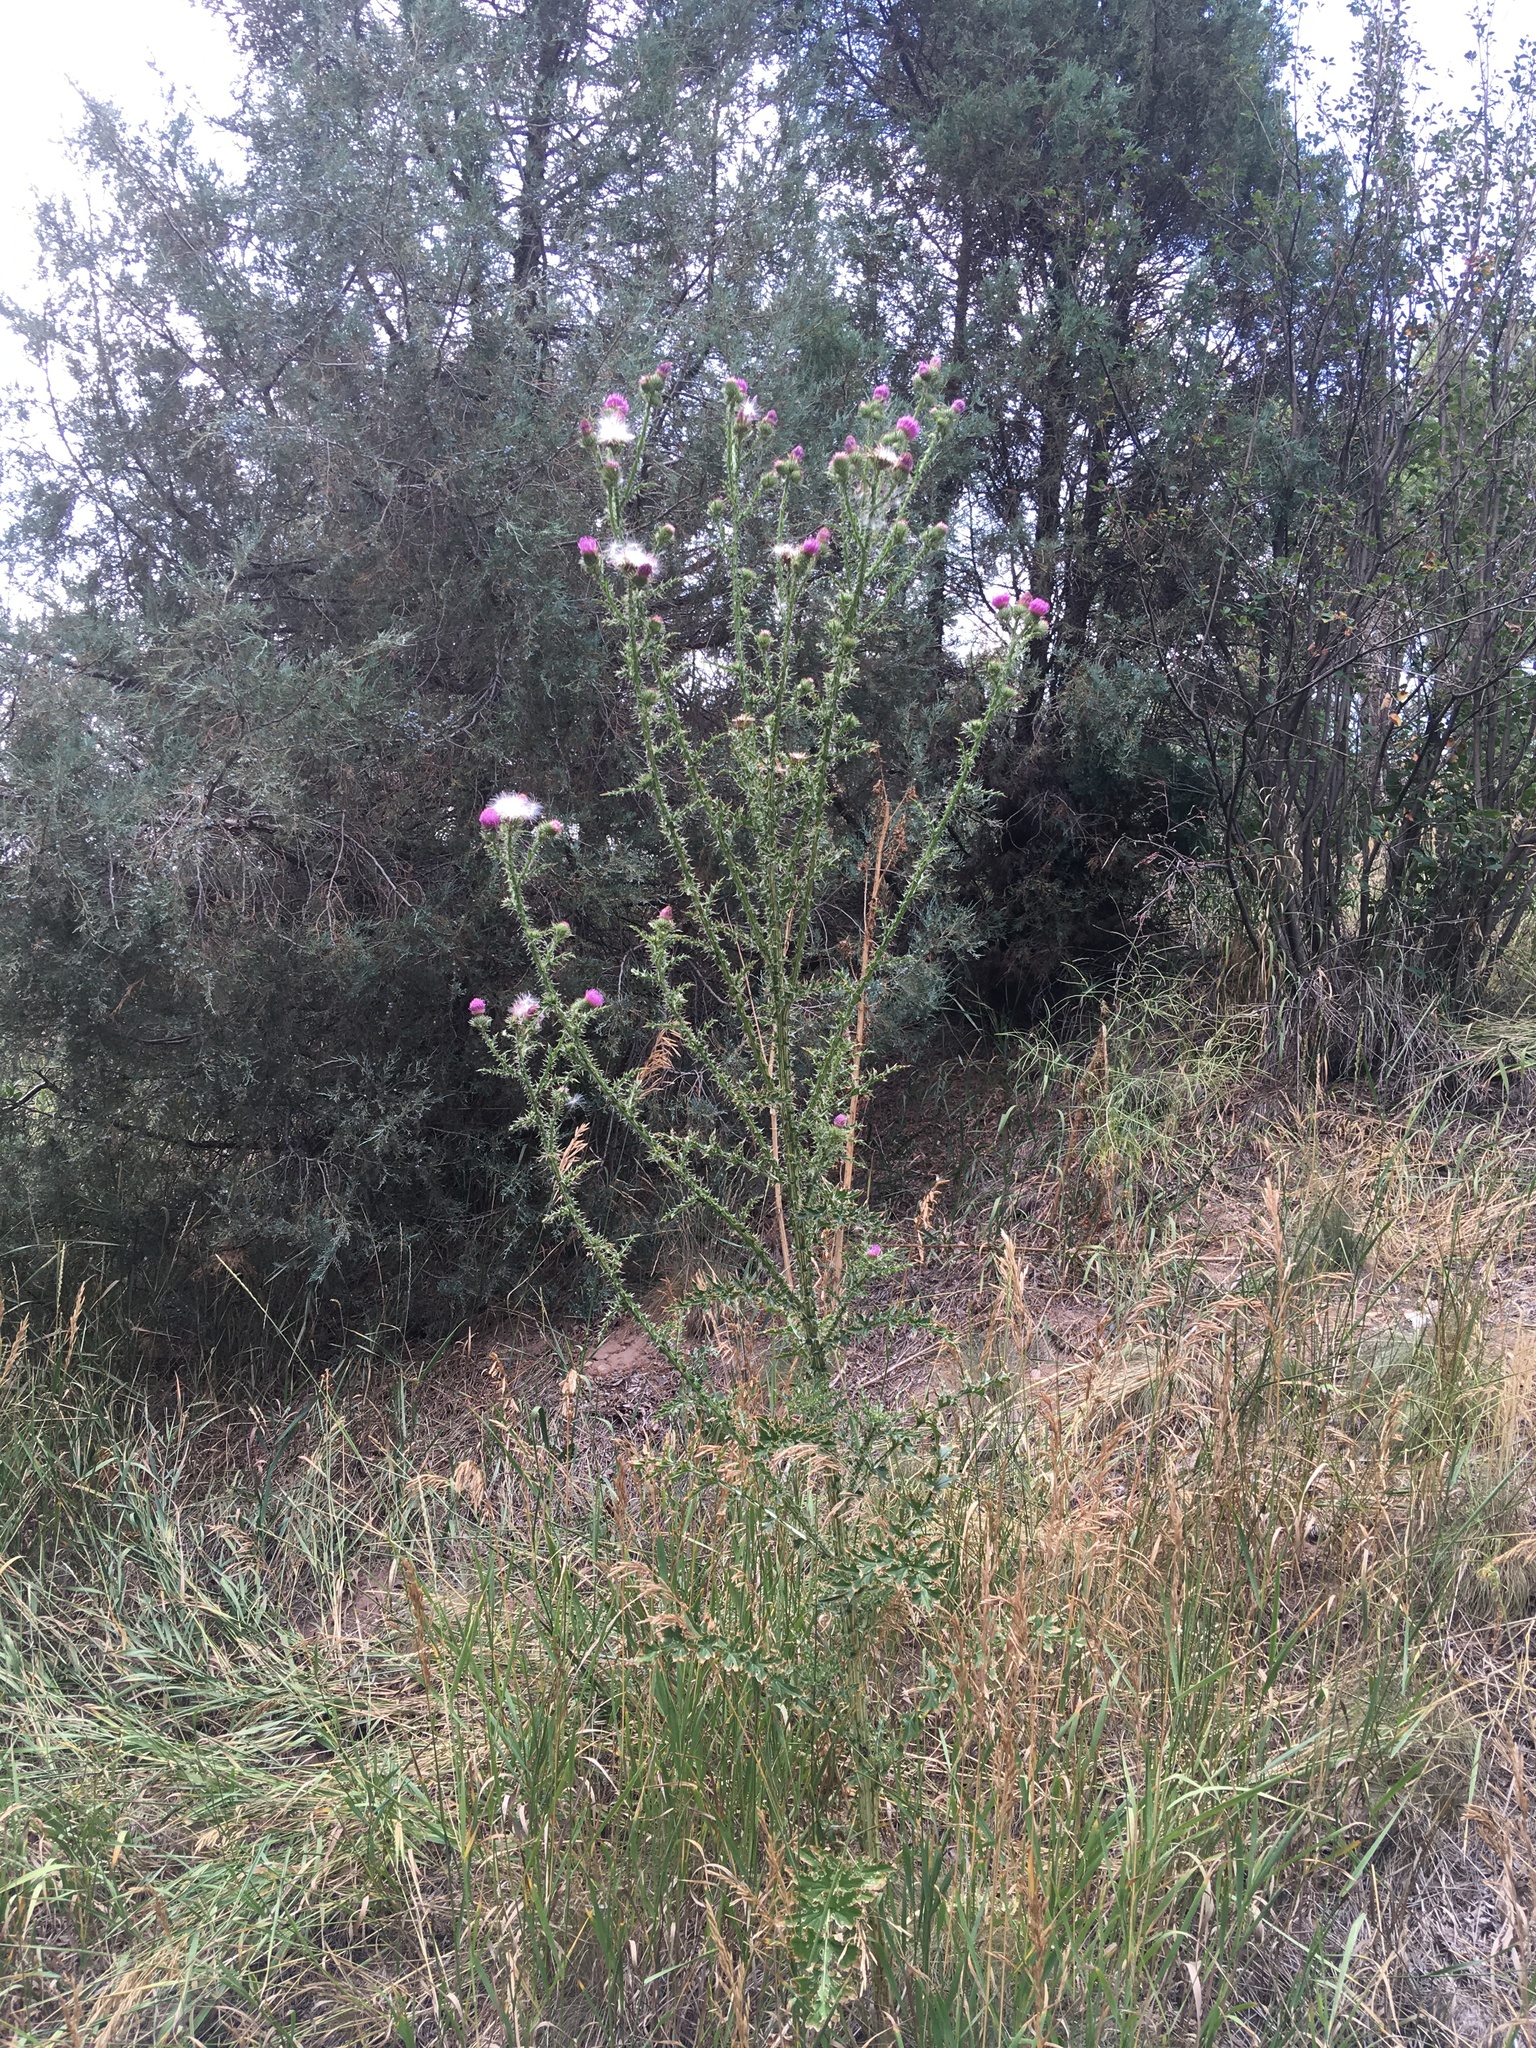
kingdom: Plantae
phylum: Tracheophyta
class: Magnoliopsida
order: Asterales
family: Asteraceae
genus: Carduus
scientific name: Carduus acanthoides
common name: Plumeless thistle
